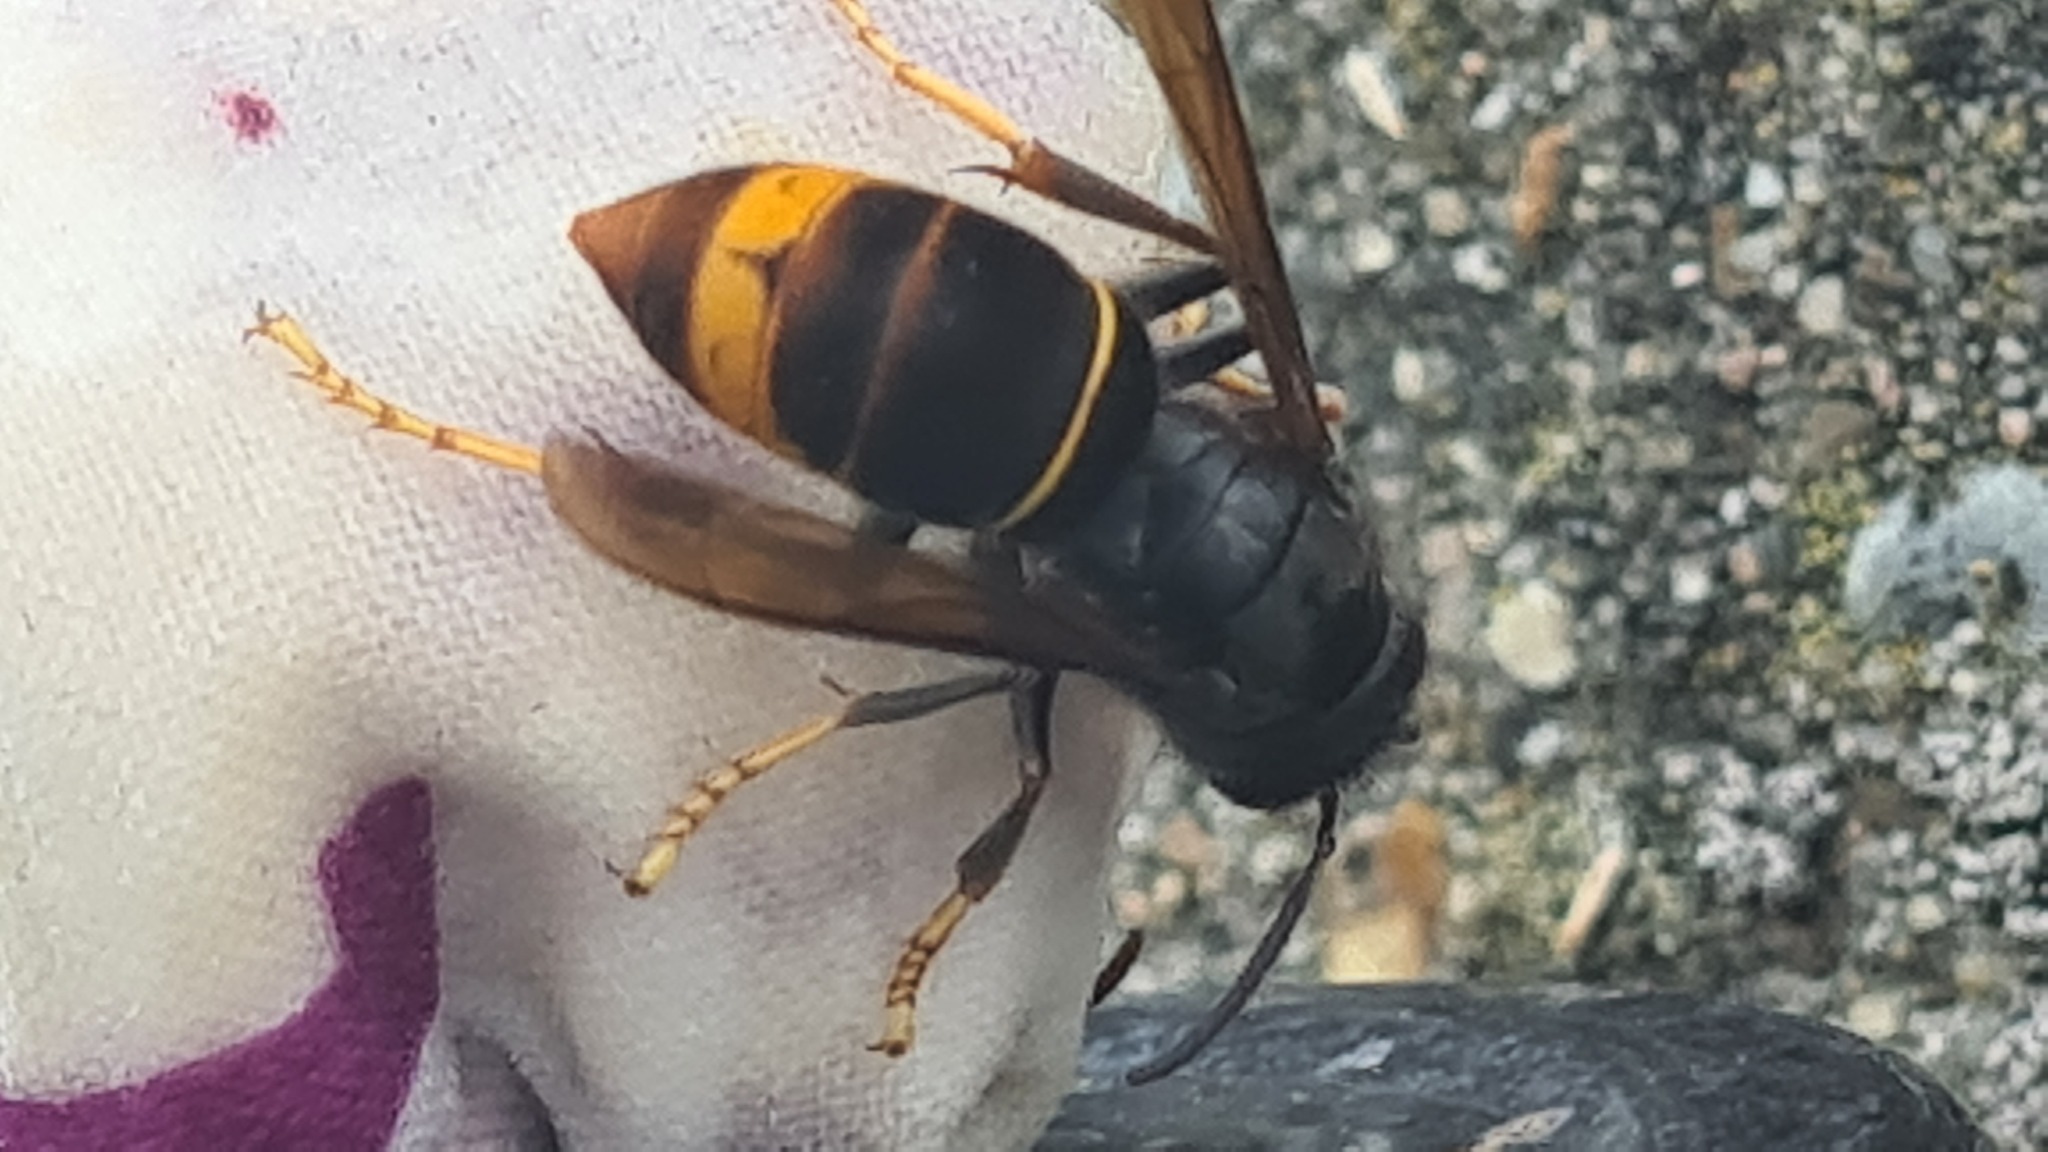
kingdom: Animalia
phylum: Arthropoda
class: Insecta
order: Hymenoptera
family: Vespidae
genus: Vespa
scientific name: Vespa velutina
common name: Asian hornet
